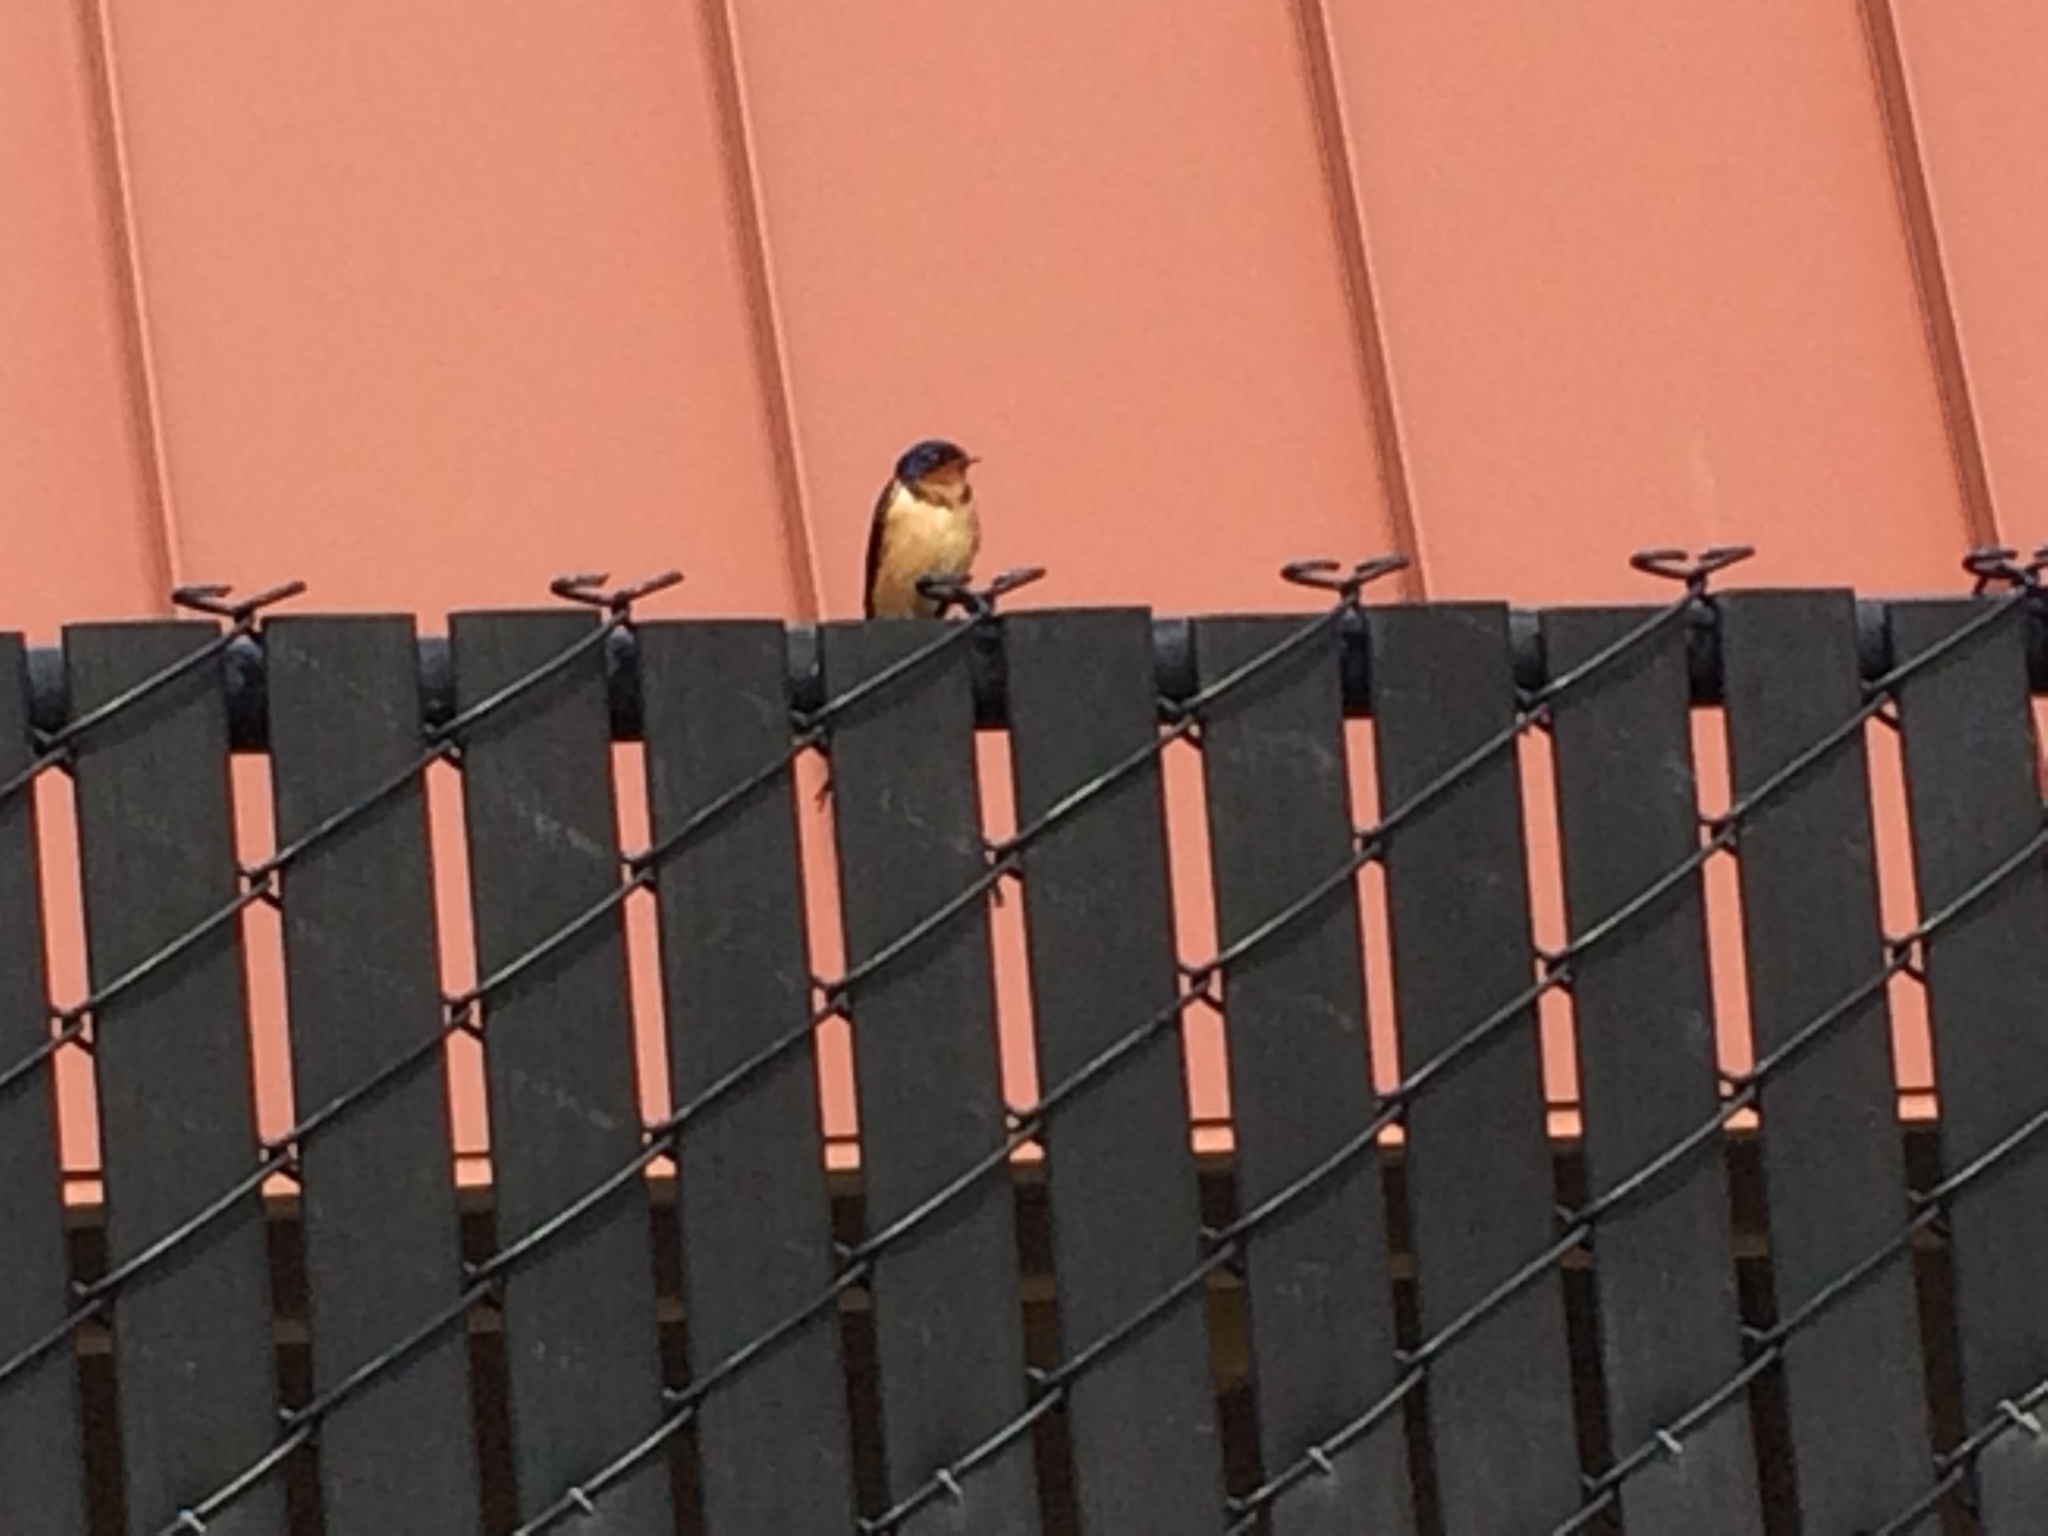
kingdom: Animalia
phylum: Chordata
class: Aves
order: Passeriformes
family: Hirundinidae
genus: Hirundo
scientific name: Hirundo rustica
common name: Barn swallow
